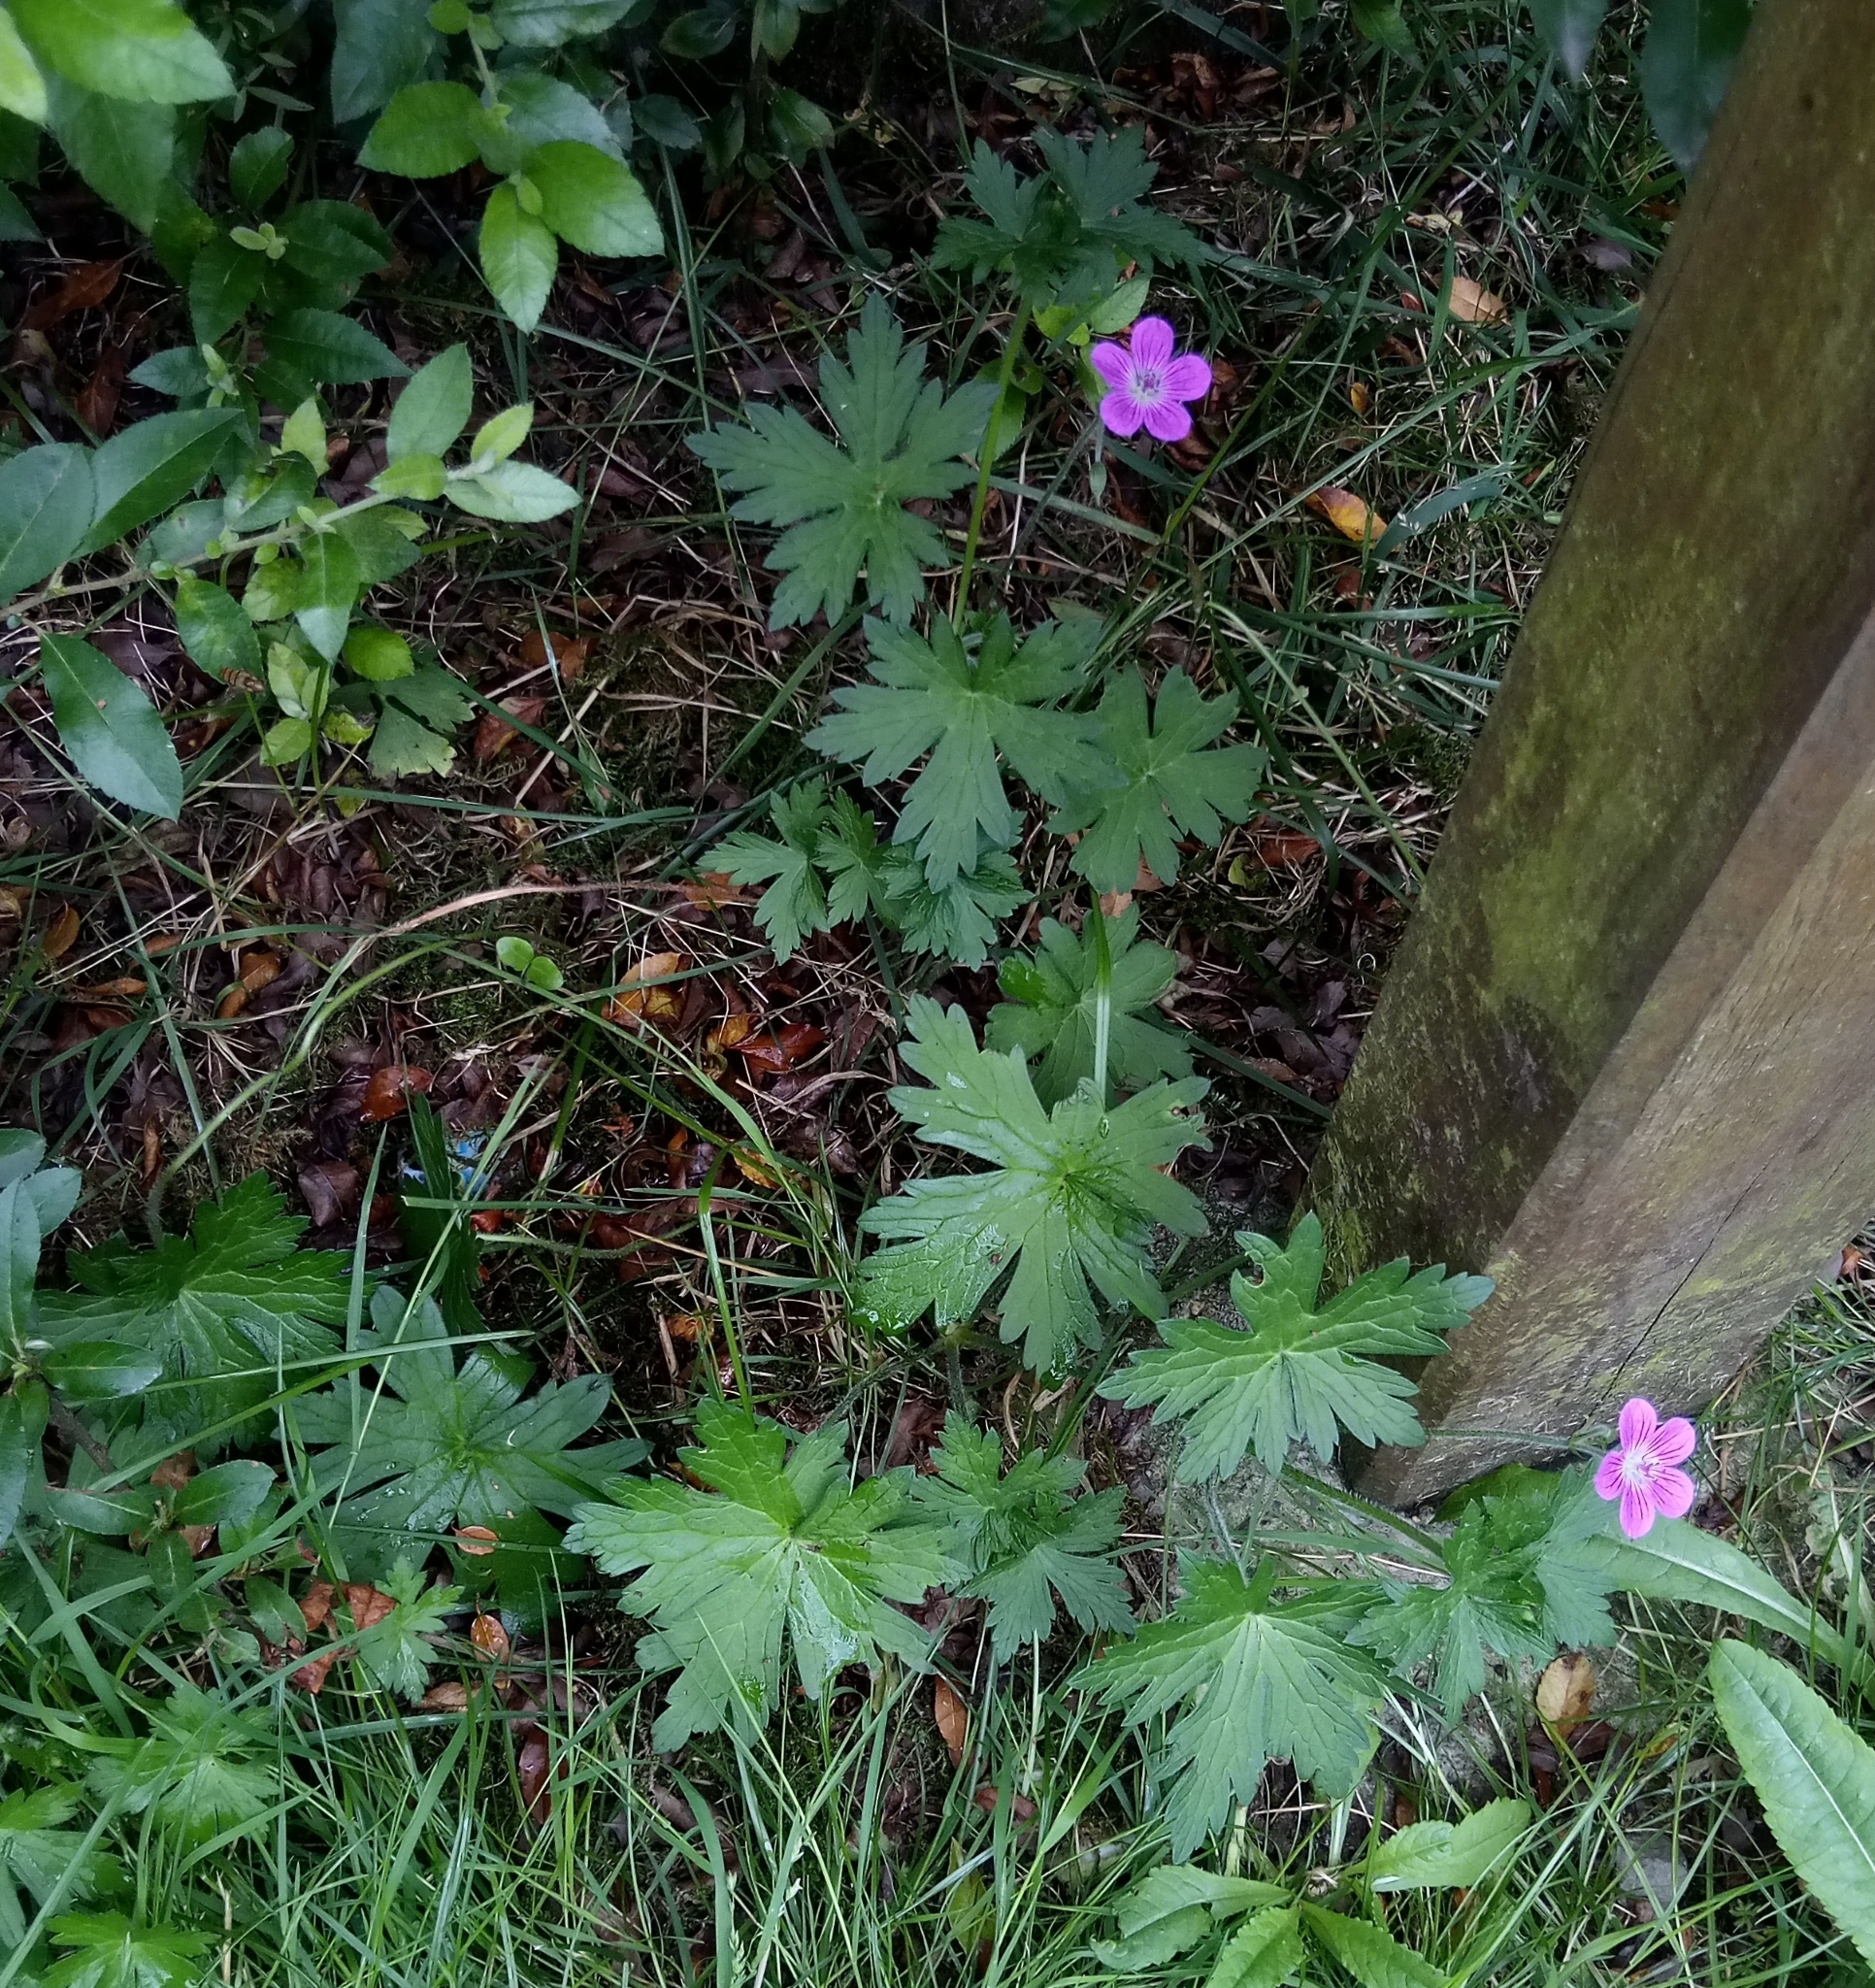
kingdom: Plantae
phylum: Tracheophyta
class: Magnoliopsida
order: Geraniales
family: Geraniaceae
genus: Geranium
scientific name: Geranium palustre
